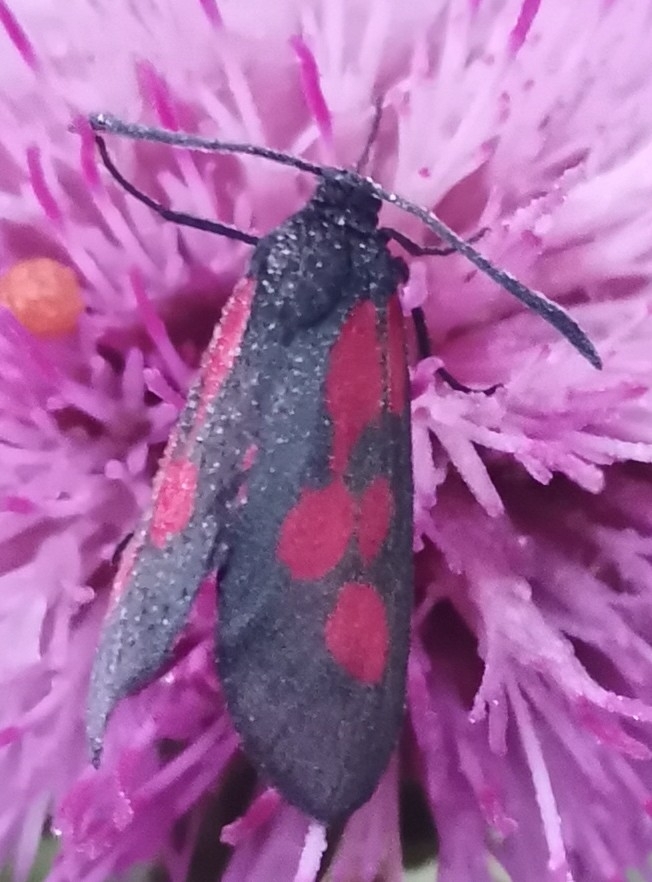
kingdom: Animalia
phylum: Arthropoda
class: Insecta
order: Lepidoptera
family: Zygaenidae
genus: Zygaena
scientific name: Zygaena viciae
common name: New forest burnet
